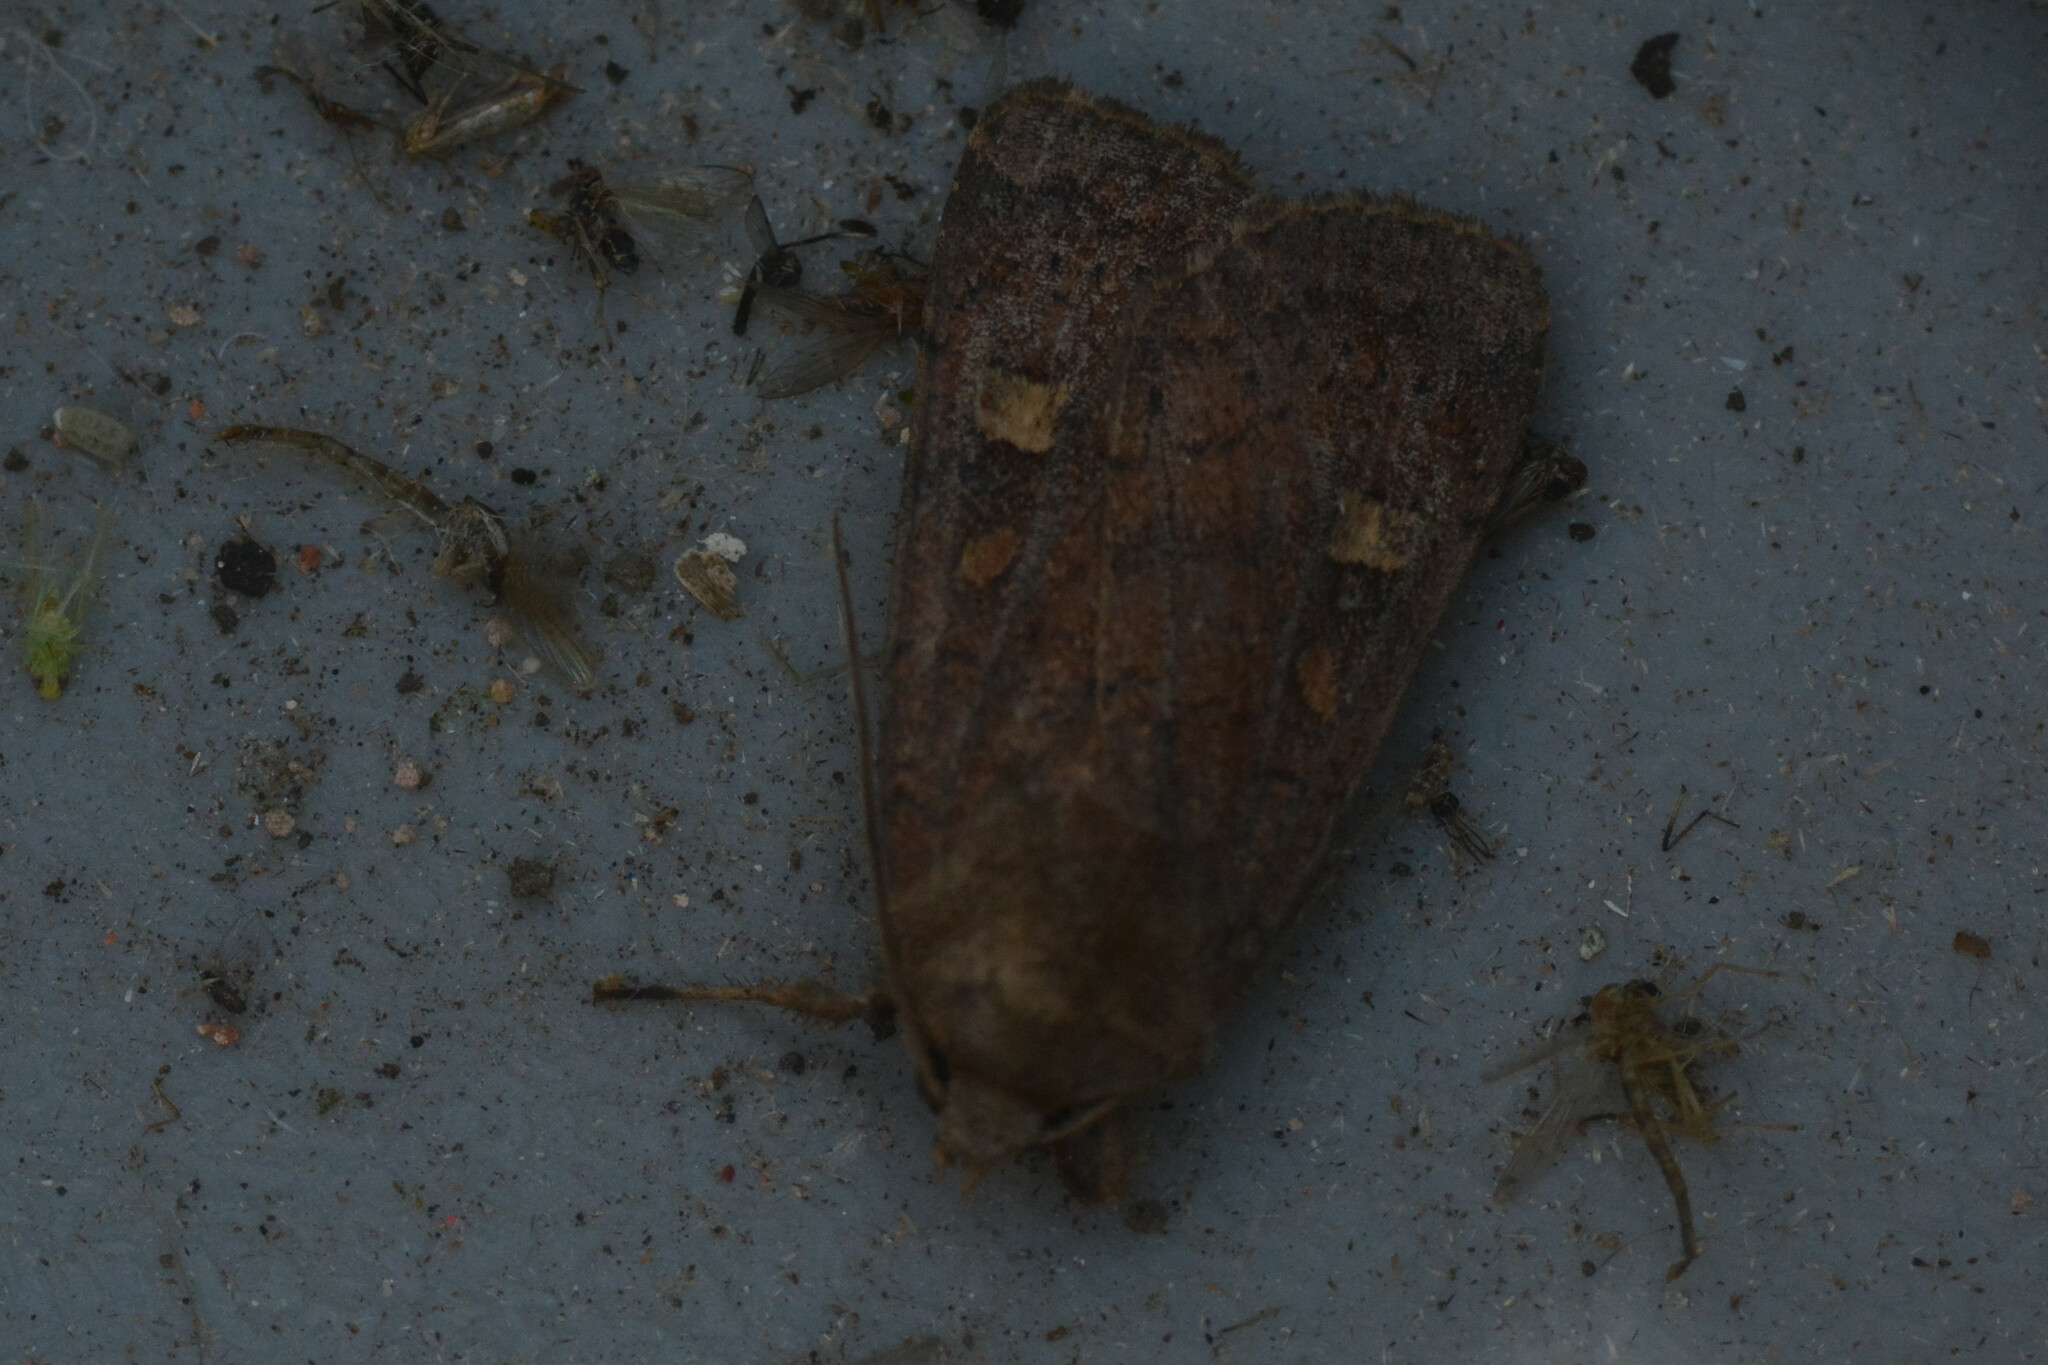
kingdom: Animalia
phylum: Arthropoda
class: Insecta
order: Lepidoptera
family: Noctuidae
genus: Xestia
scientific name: Xestia xanthographa
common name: Square-spot rustic
